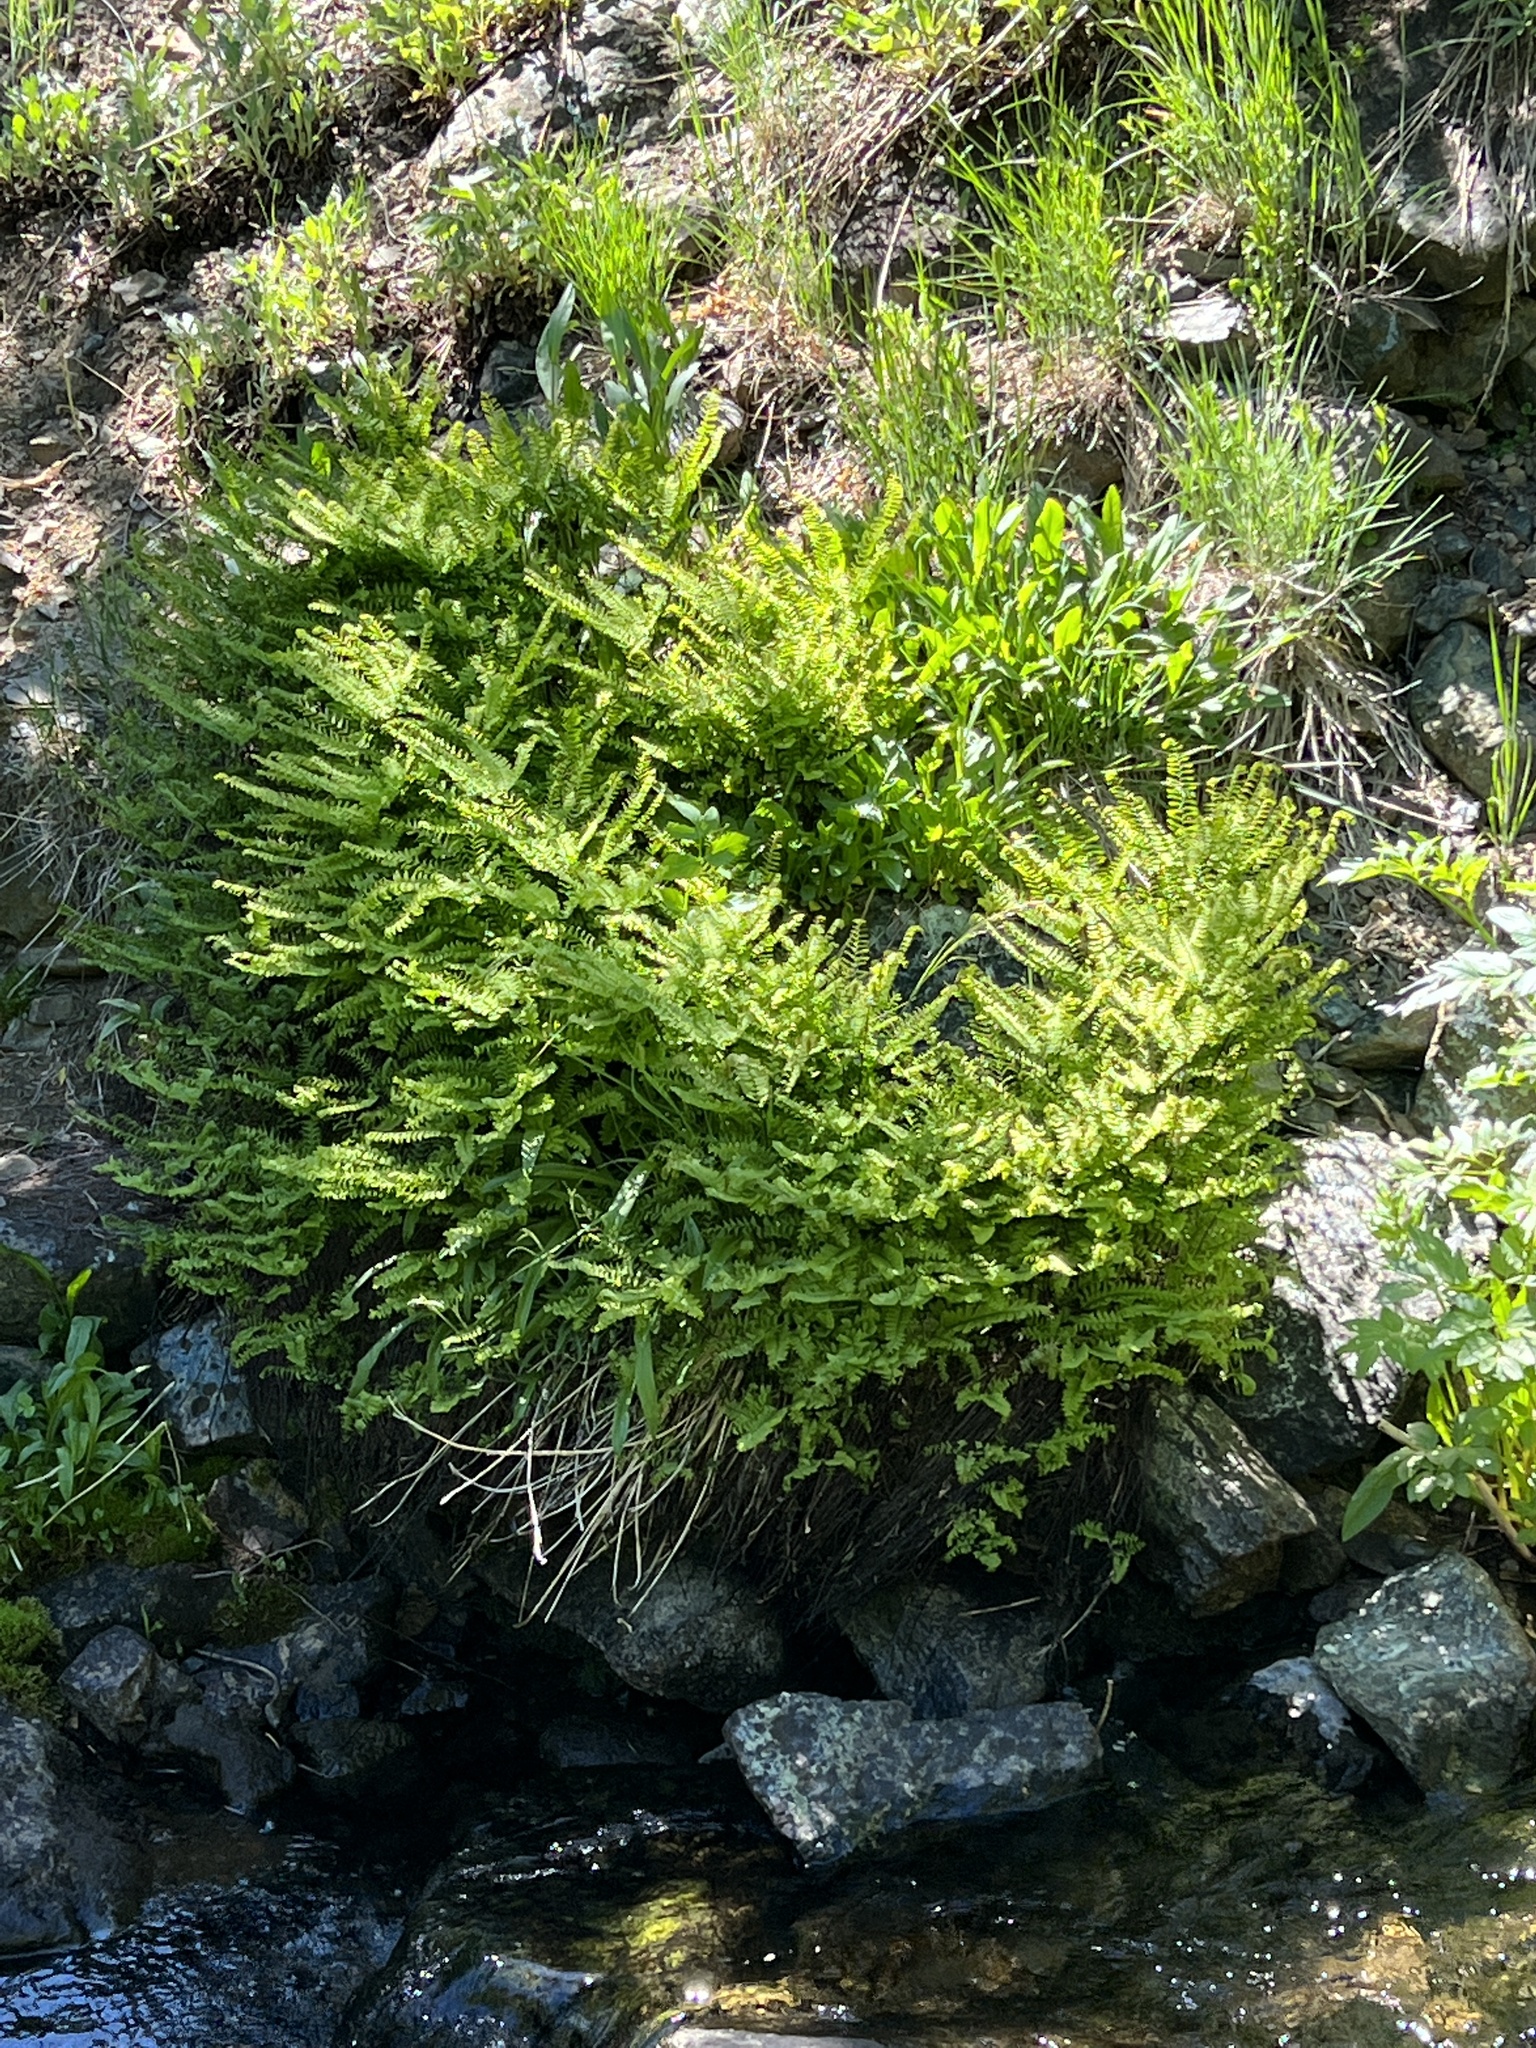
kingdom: Plantae
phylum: Tracheophyta
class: Polypodiopsida
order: Polypodiales
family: Pteridaceae
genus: Adiantum
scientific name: Adiantum aleuticum
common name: Aleutian maidenhair fern
